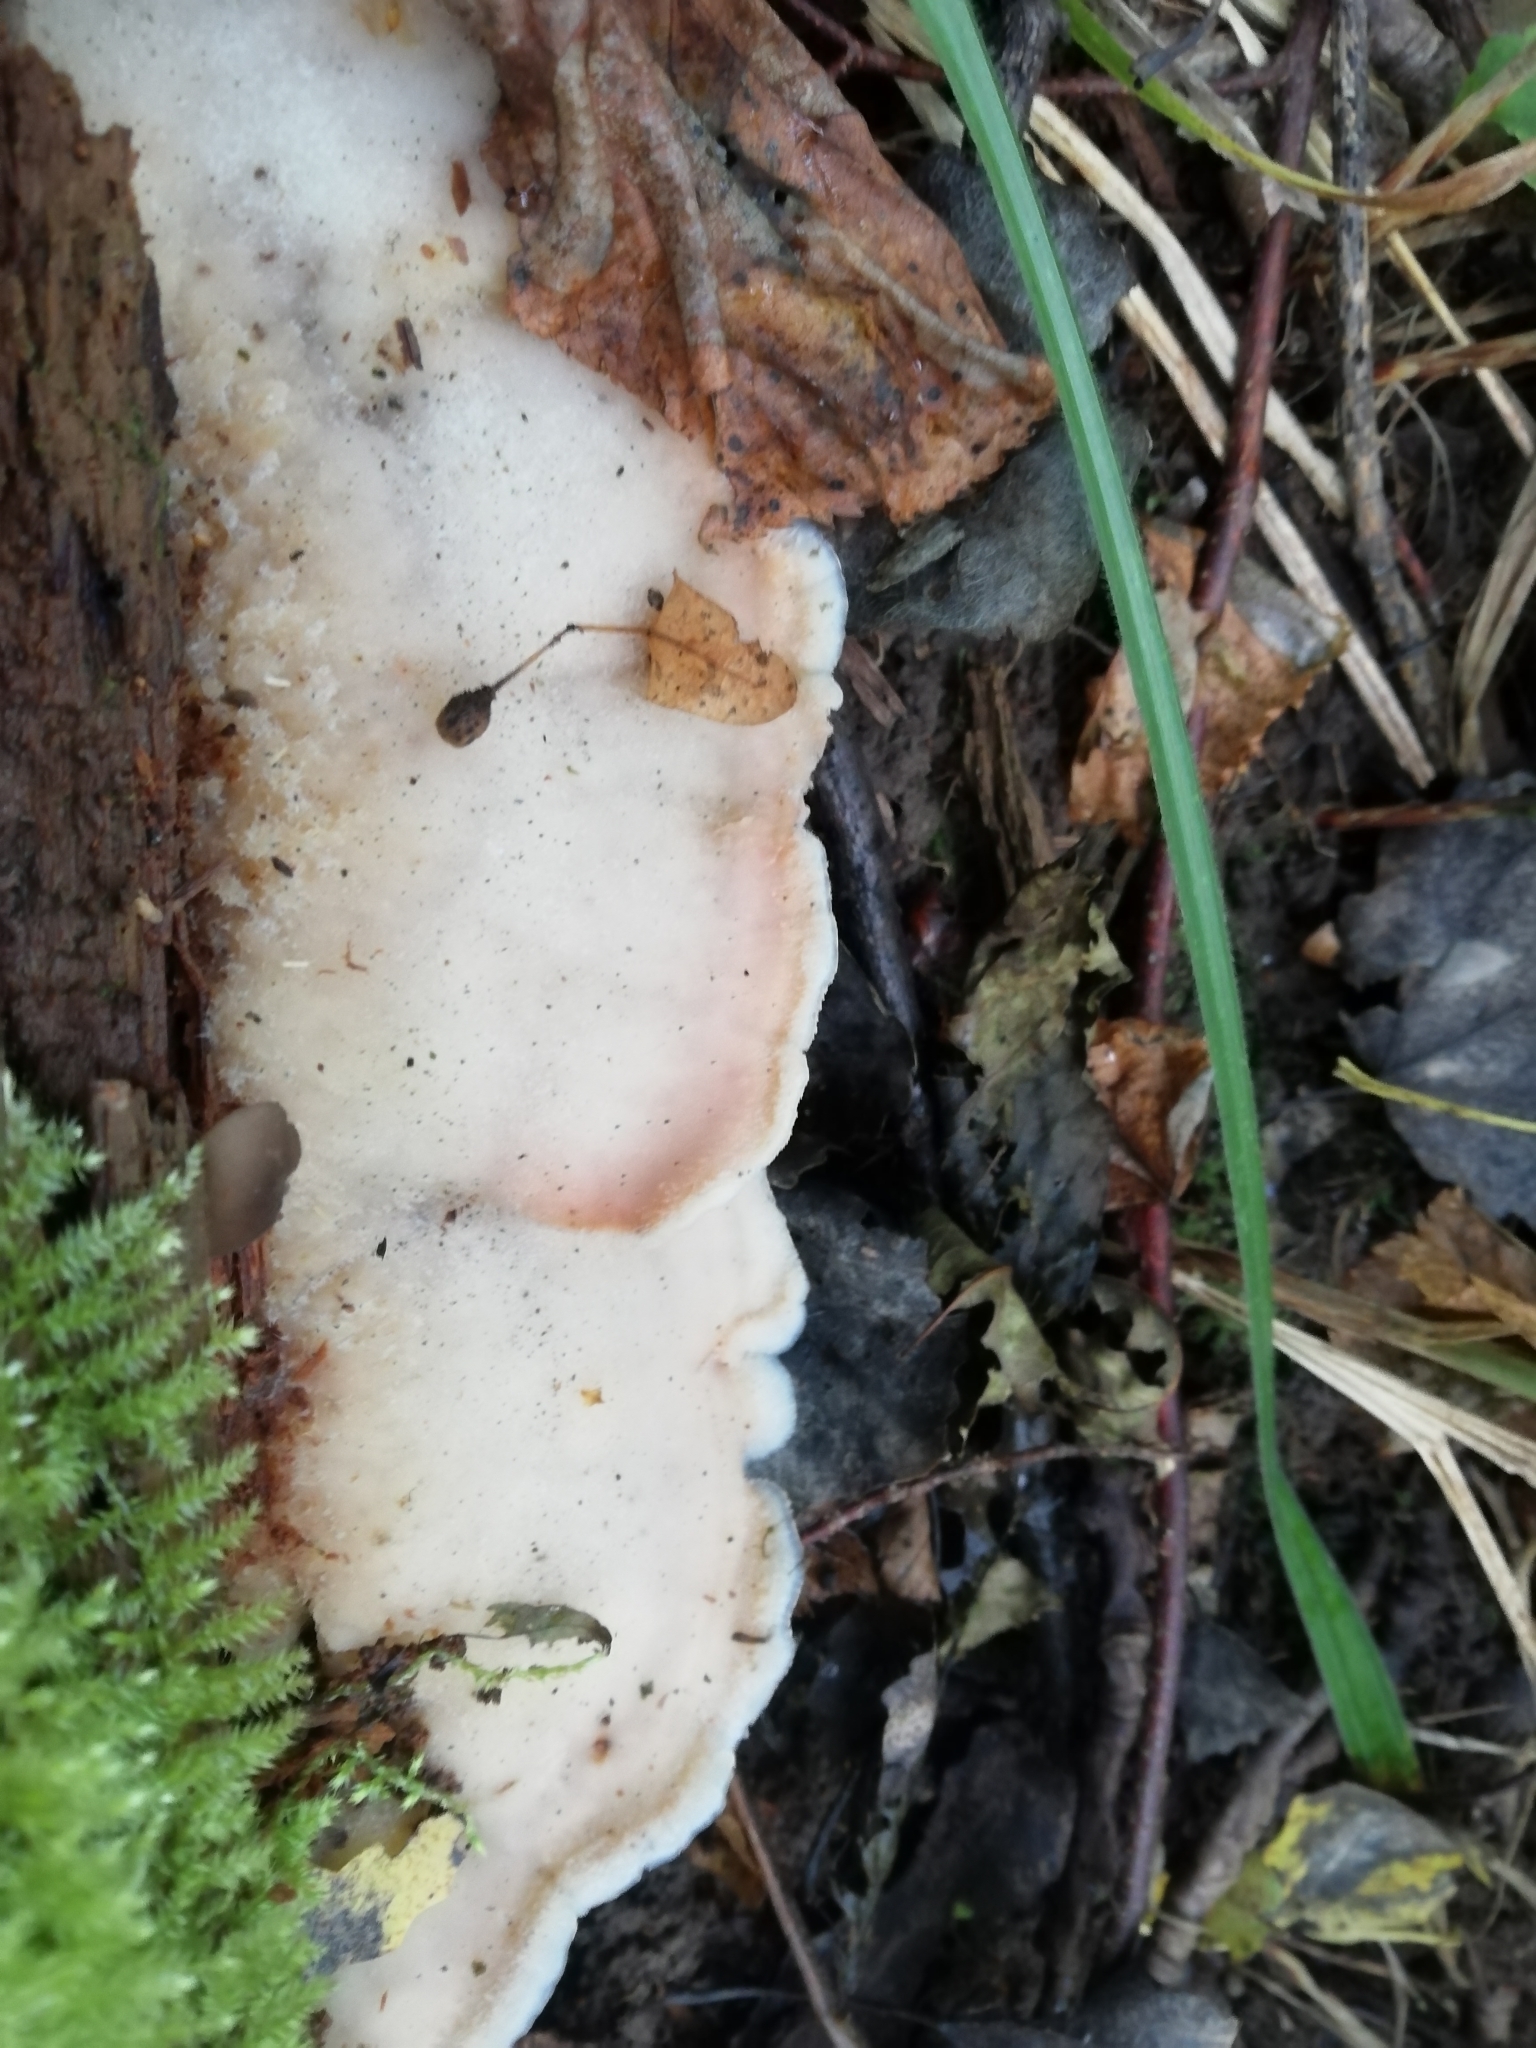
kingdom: Fungi
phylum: Basidiomycota
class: Agaricomycetes
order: Polyporales
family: Meruliaceae
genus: Phlebia
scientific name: Phlebia tremellosa
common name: Jelly rot
